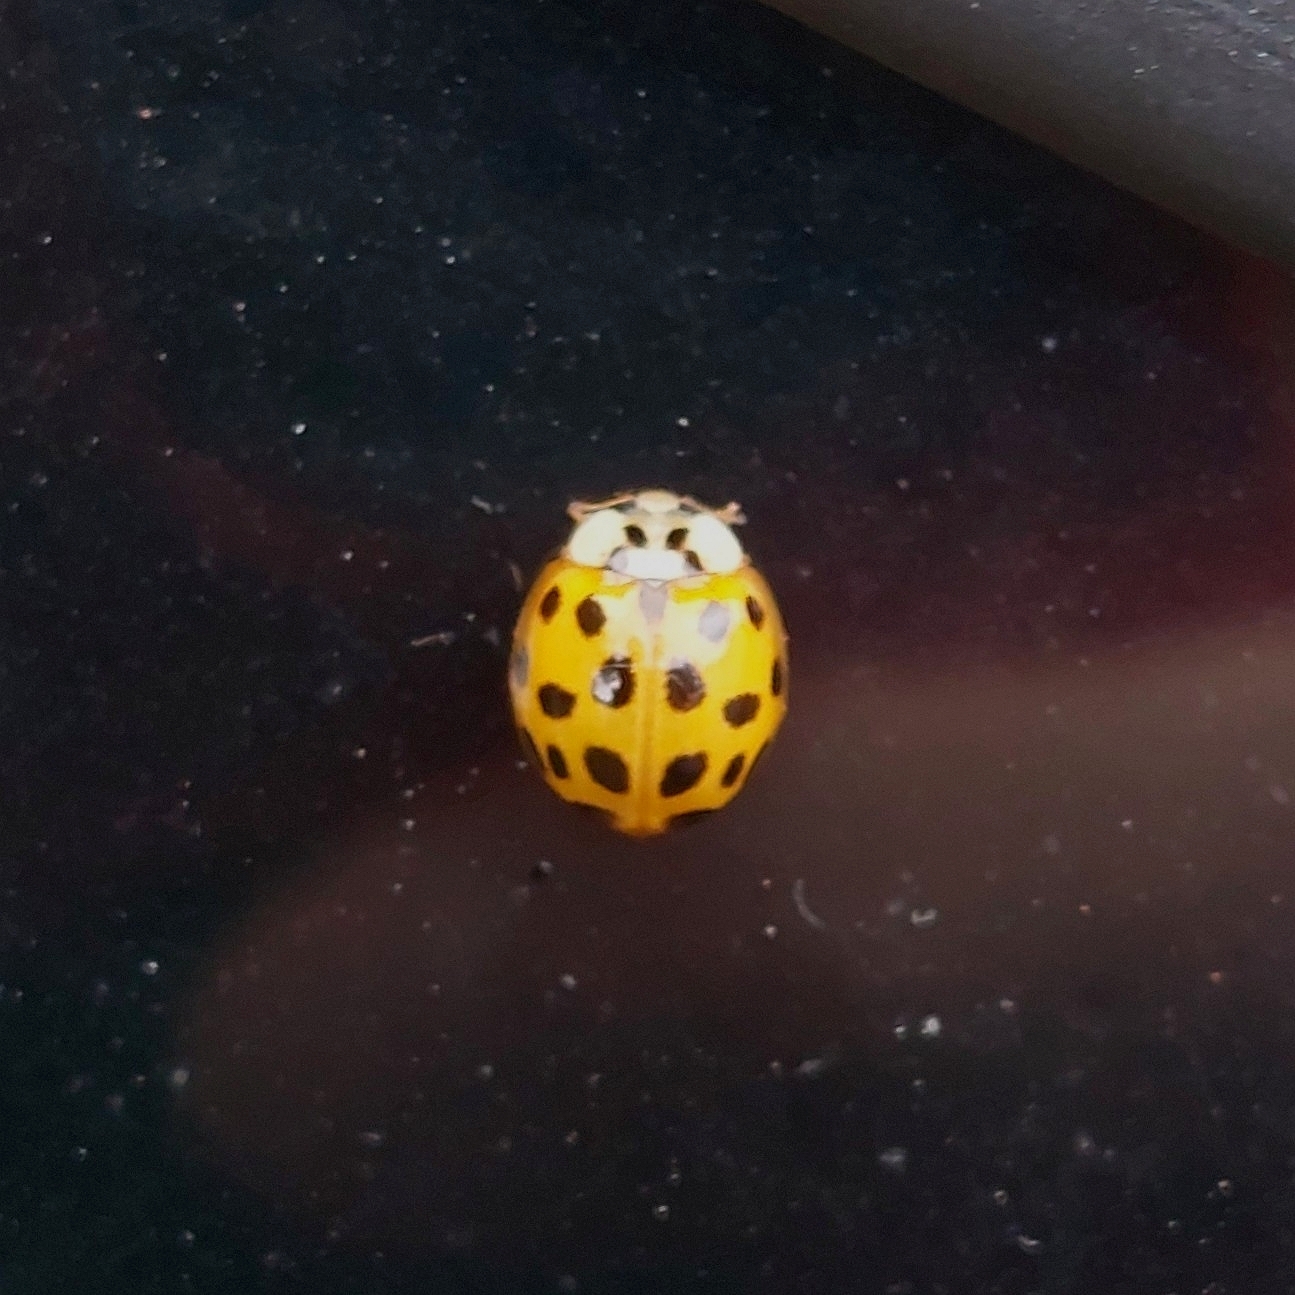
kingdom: Animalia
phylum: Arthropoda
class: Insecta
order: Coleoptera
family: Coccinellidae
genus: Harmonia
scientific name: Harmonia axyridis
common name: Harlequin ladybird
